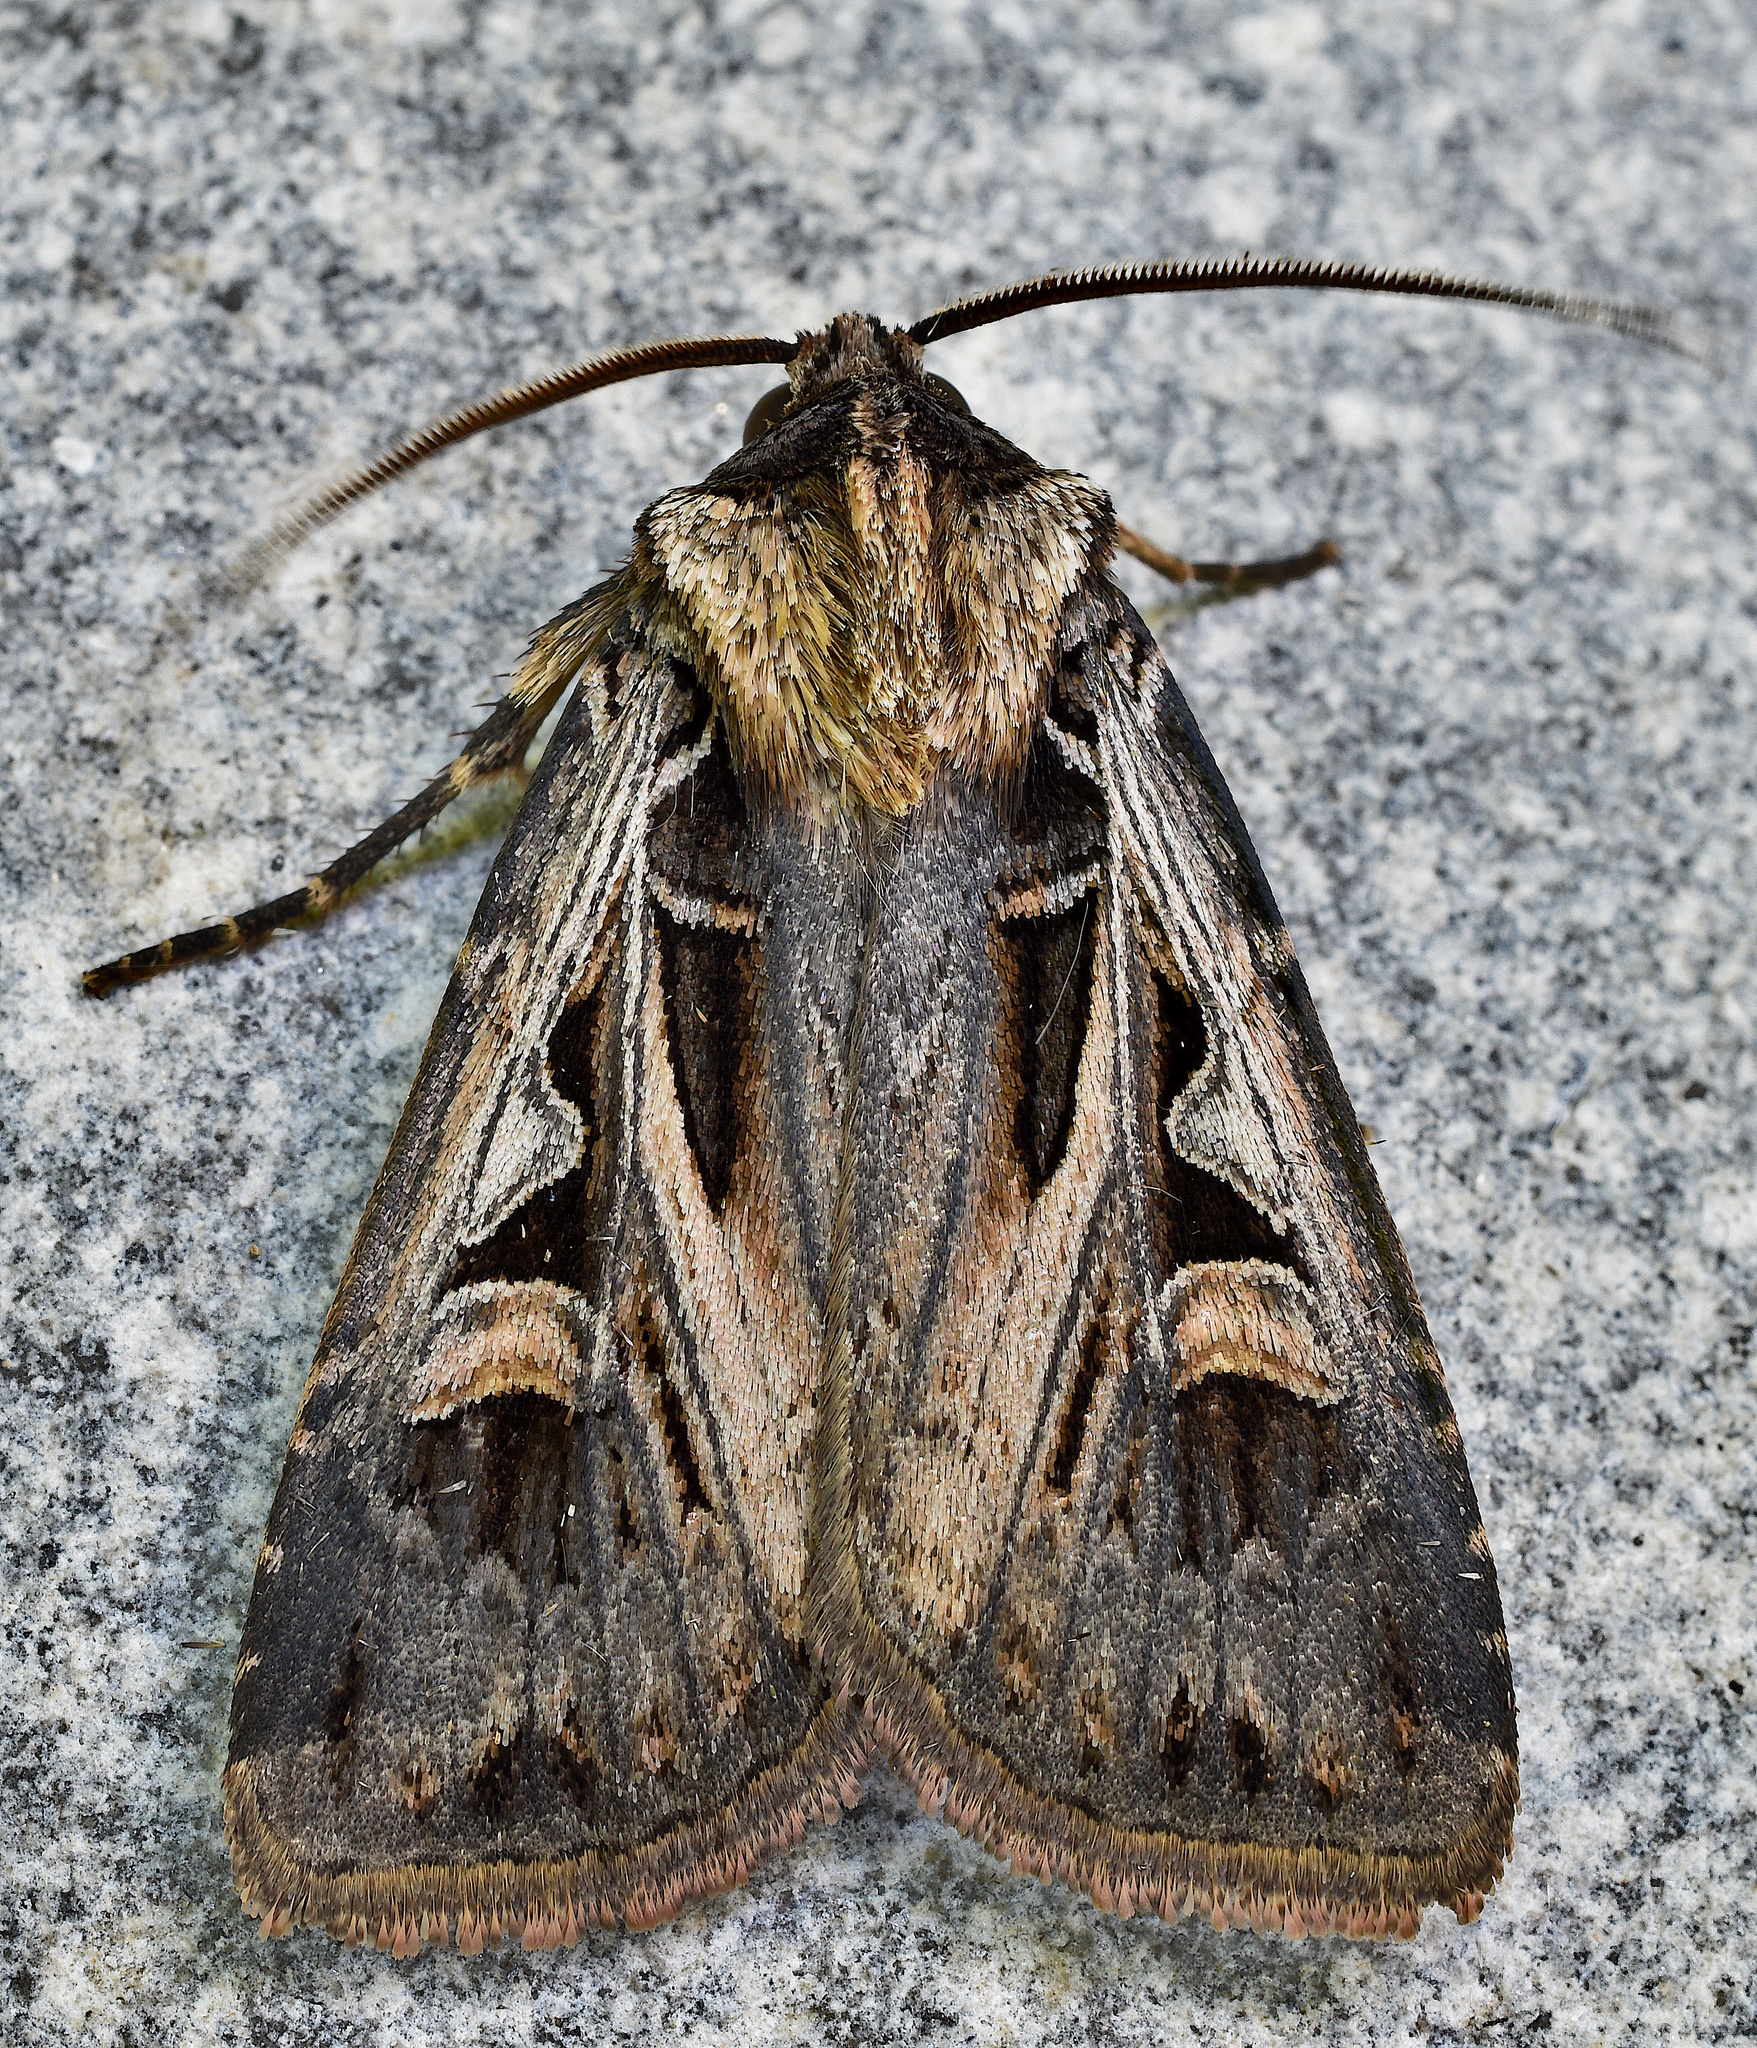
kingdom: Animalia
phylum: Arthropoda
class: Insecta
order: Lepidoptera
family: Noctuidae
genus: Feltia
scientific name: Feltia tricosa
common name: Confused dart moth
